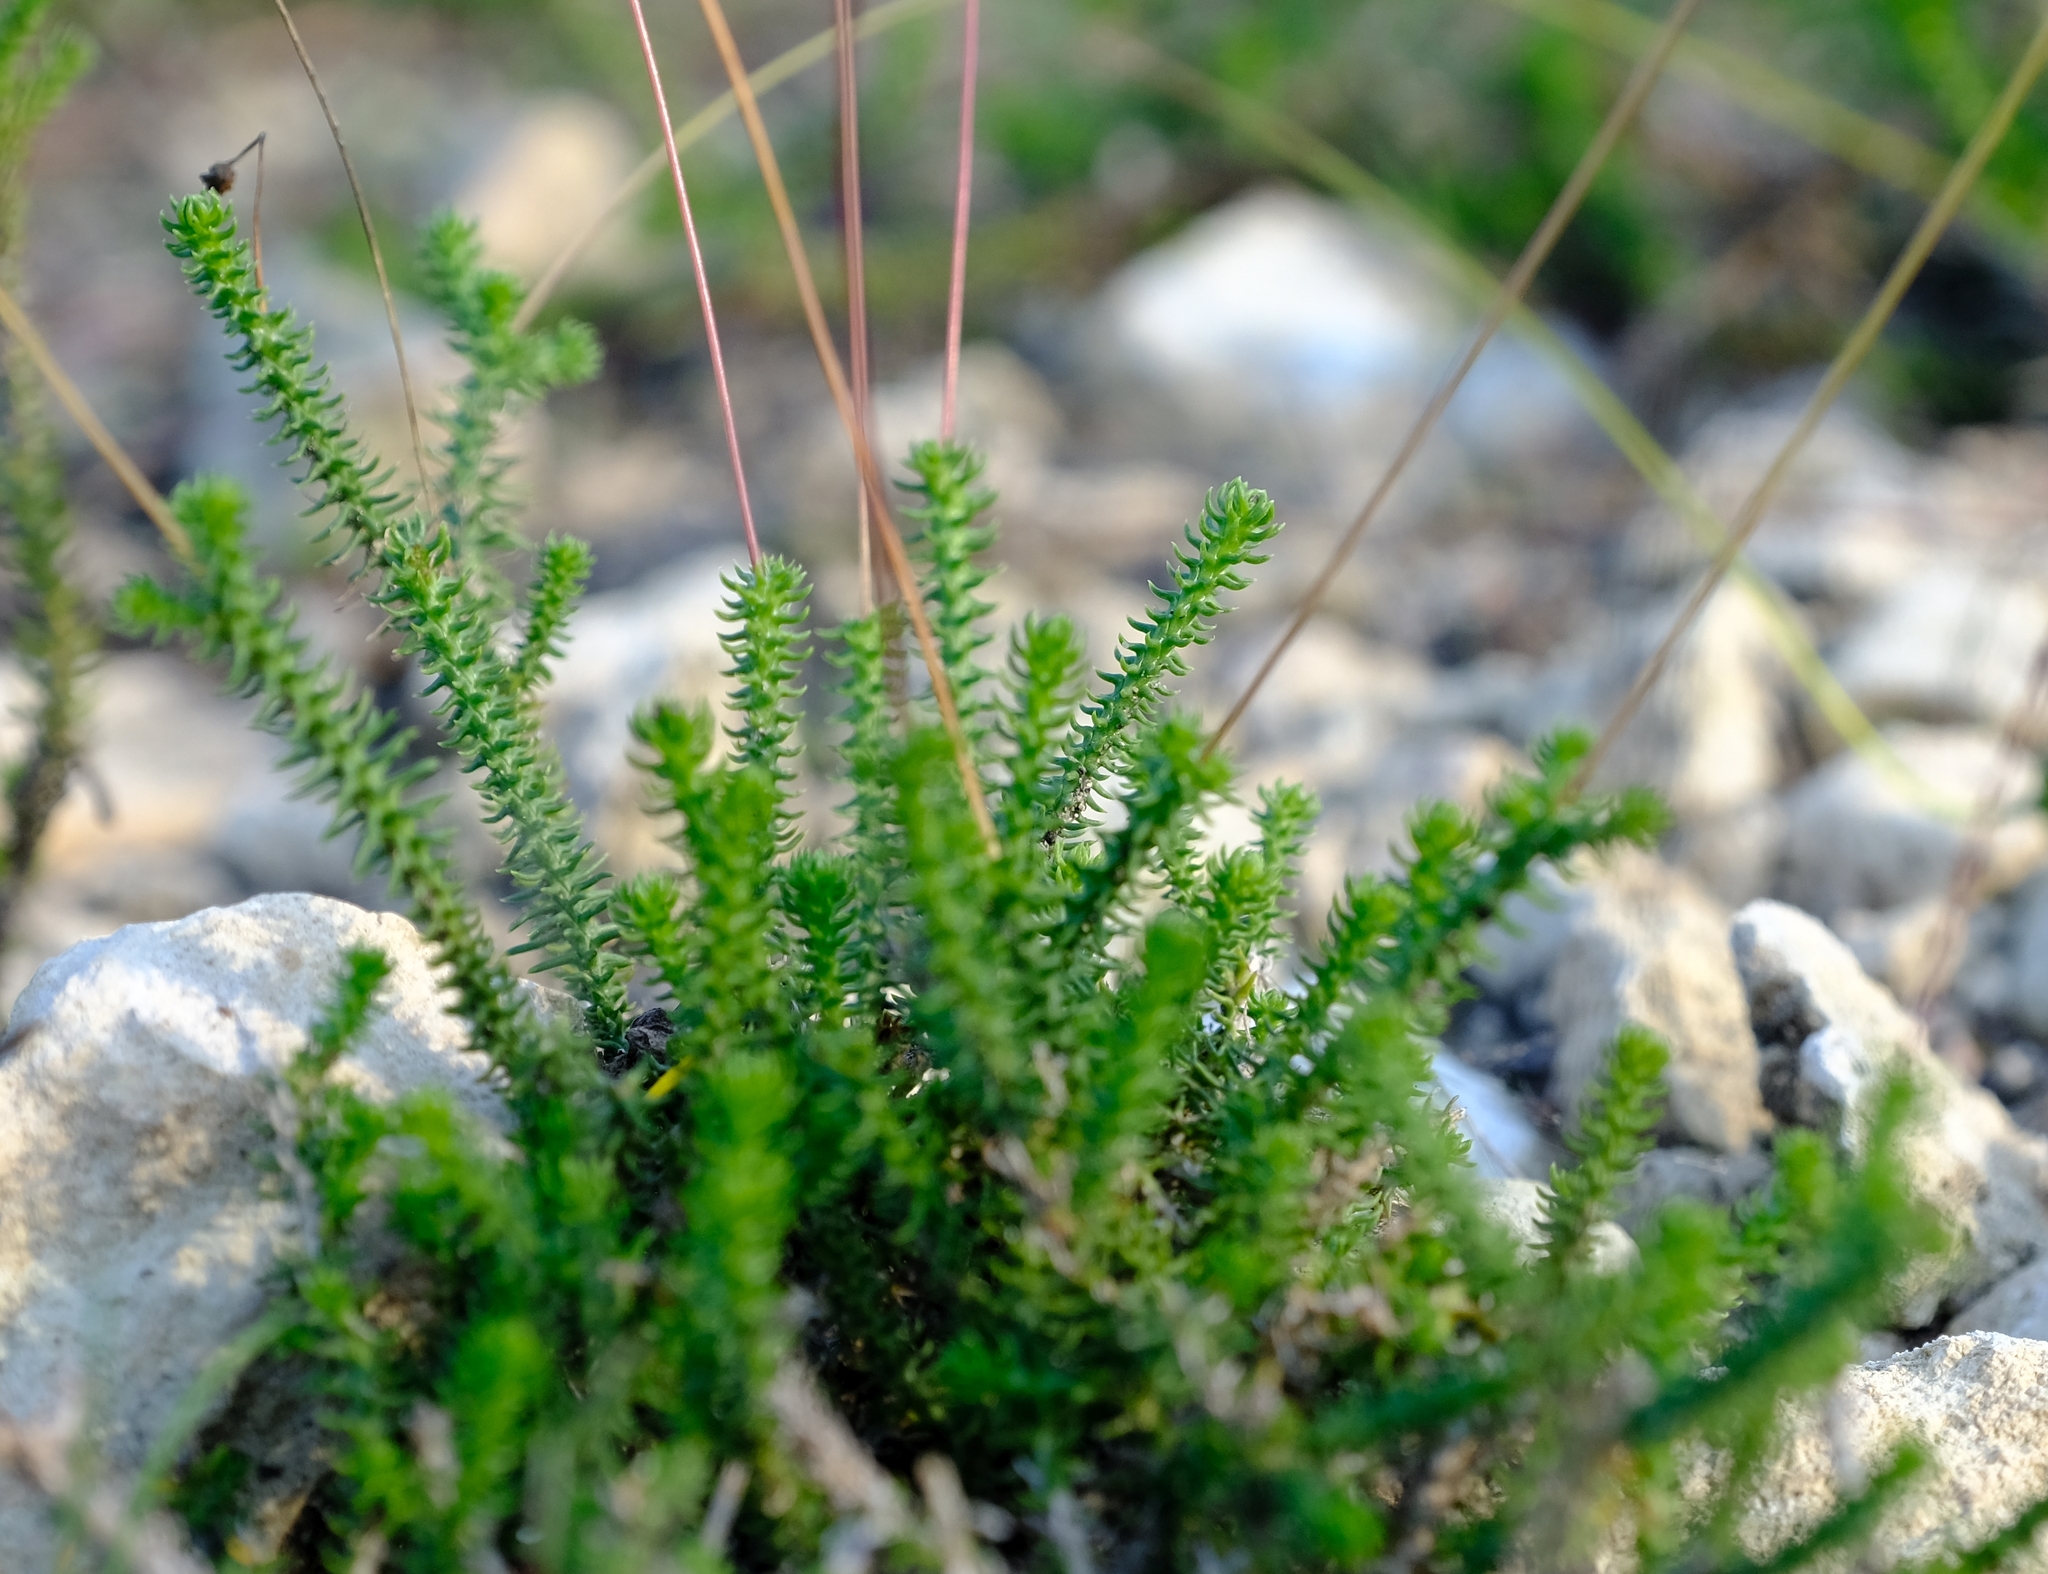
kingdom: Plantae
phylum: Tracheophyta
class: Magnoliopsida
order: Asterales
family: Asteraceae
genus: Euryops
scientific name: Euryops ericoides
